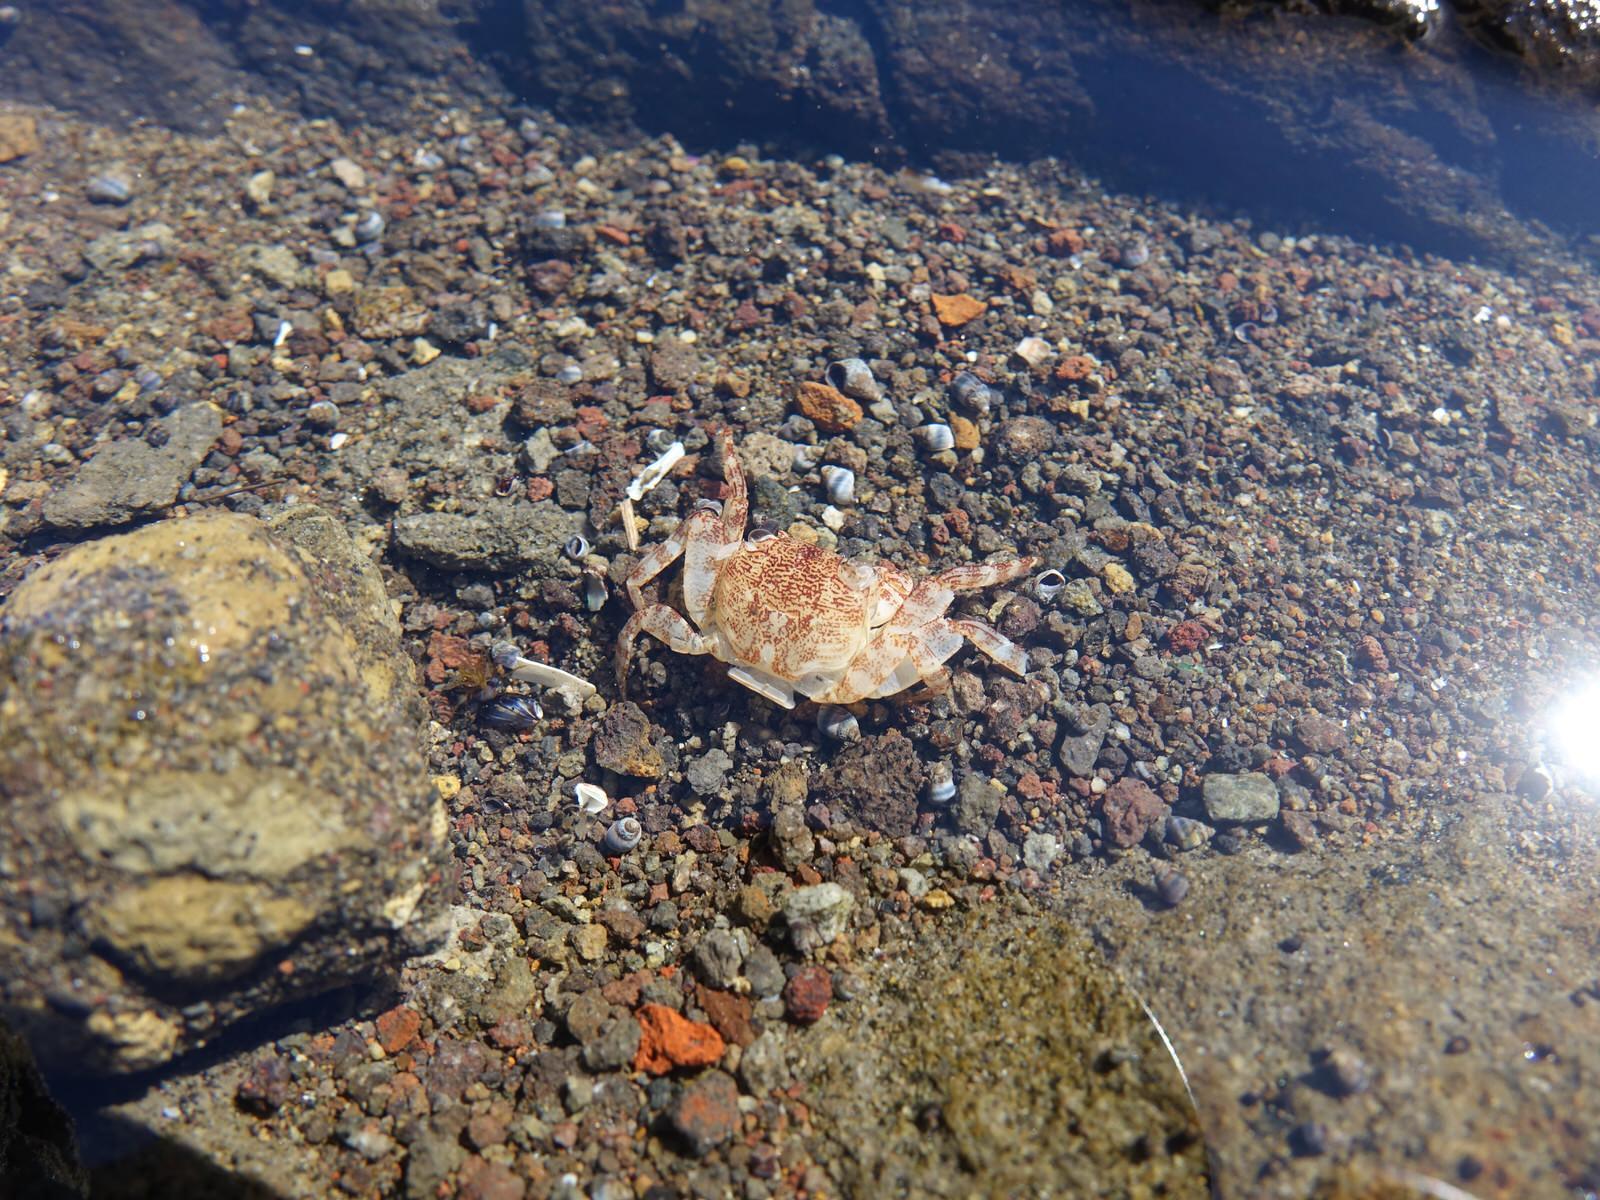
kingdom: Animalia
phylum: Arthropoda
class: Malacostraca
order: Decapoda
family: Grapsidae
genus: Leptograpsus
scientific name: Leptograpsus variegatus
